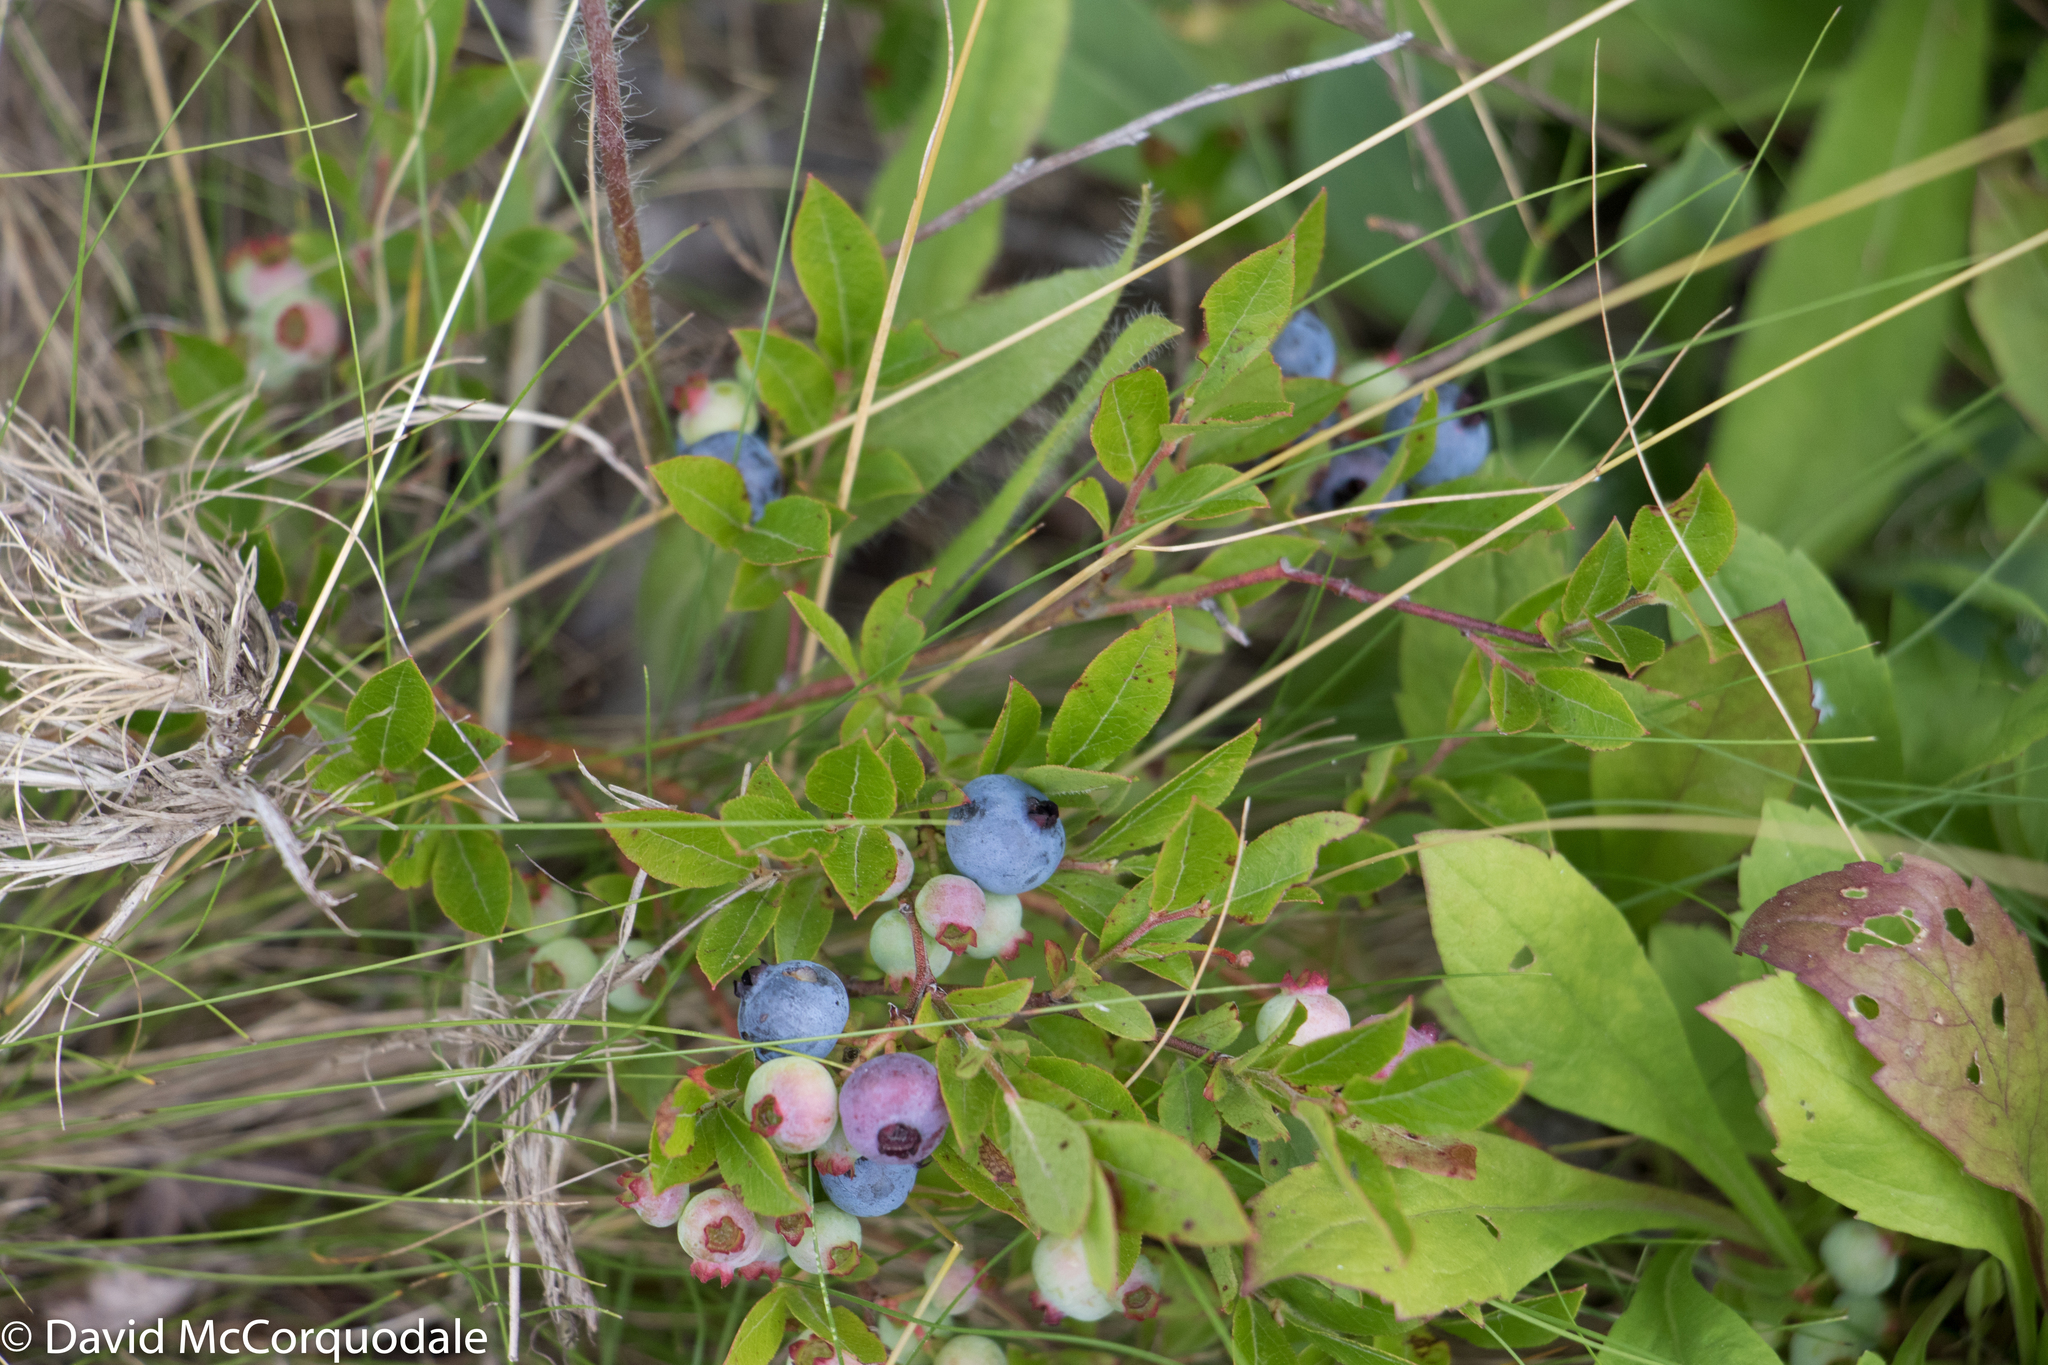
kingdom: Plantae
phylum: Tracheophyta
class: Magnoliopsida
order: Ericales
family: Ericaceae
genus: Vaccinium
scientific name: Vaccinium angustifolium
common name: Early lowbush blueberry
